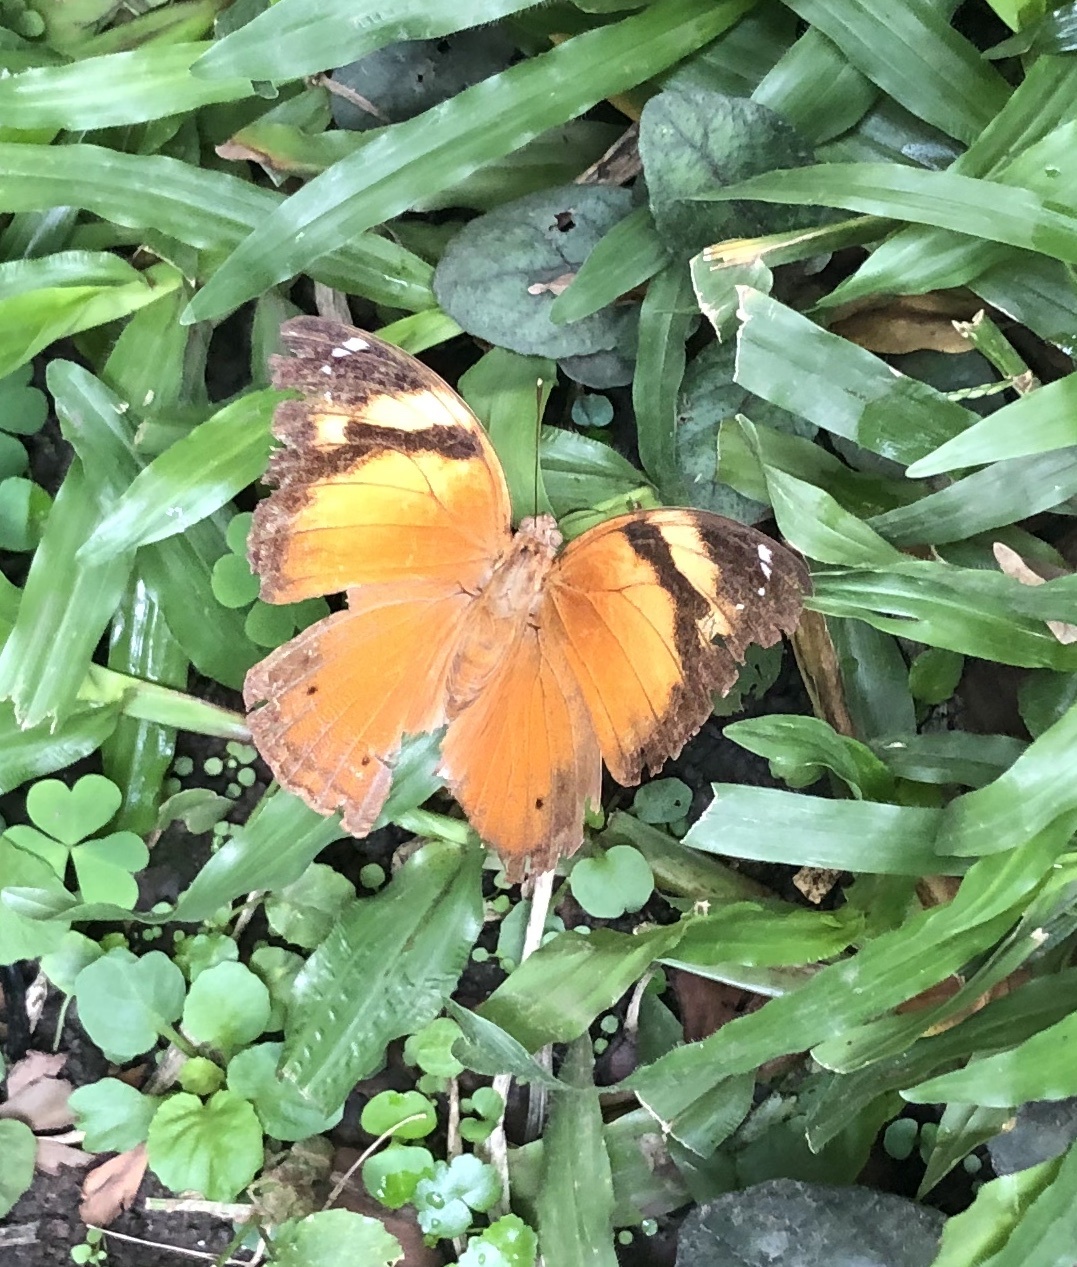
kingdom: Animalia
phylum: Arthropoda
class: Insecta
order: Lepidoptera
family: Nymphalidae
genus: Doleschallia
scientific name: Doleschallia bisaltide
